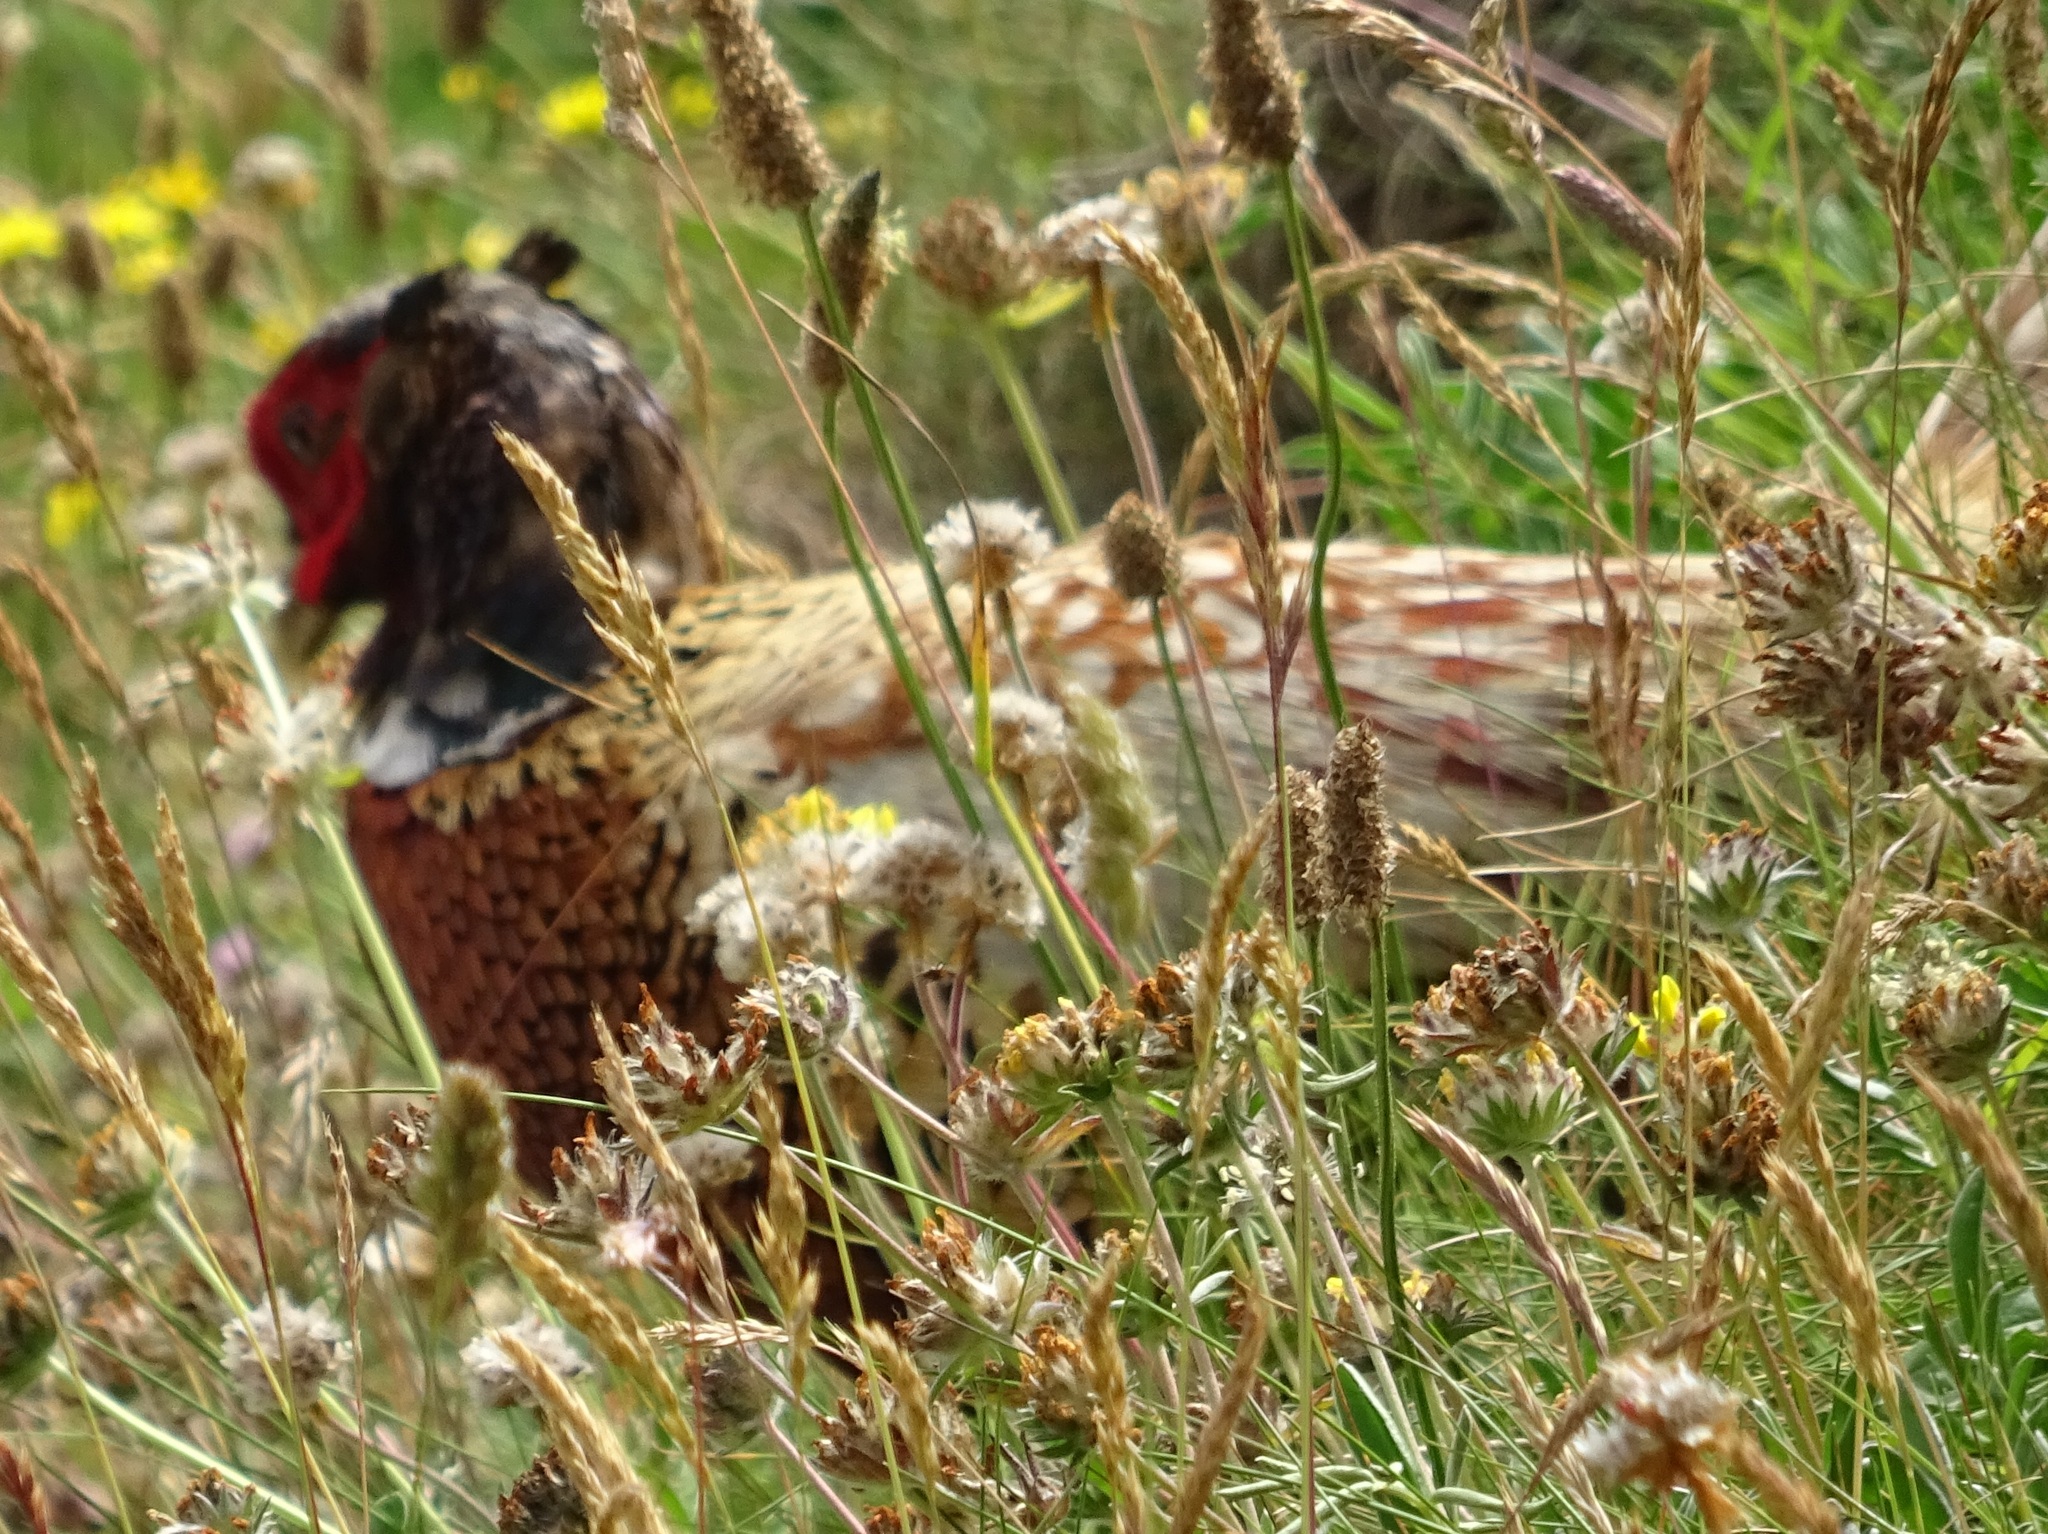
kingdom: Animalia
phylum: Chordata
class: Aves
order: Galliformes
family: Phasianidae
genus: Phasianus
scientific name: Phasianus colchicus
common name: Common pheasant
